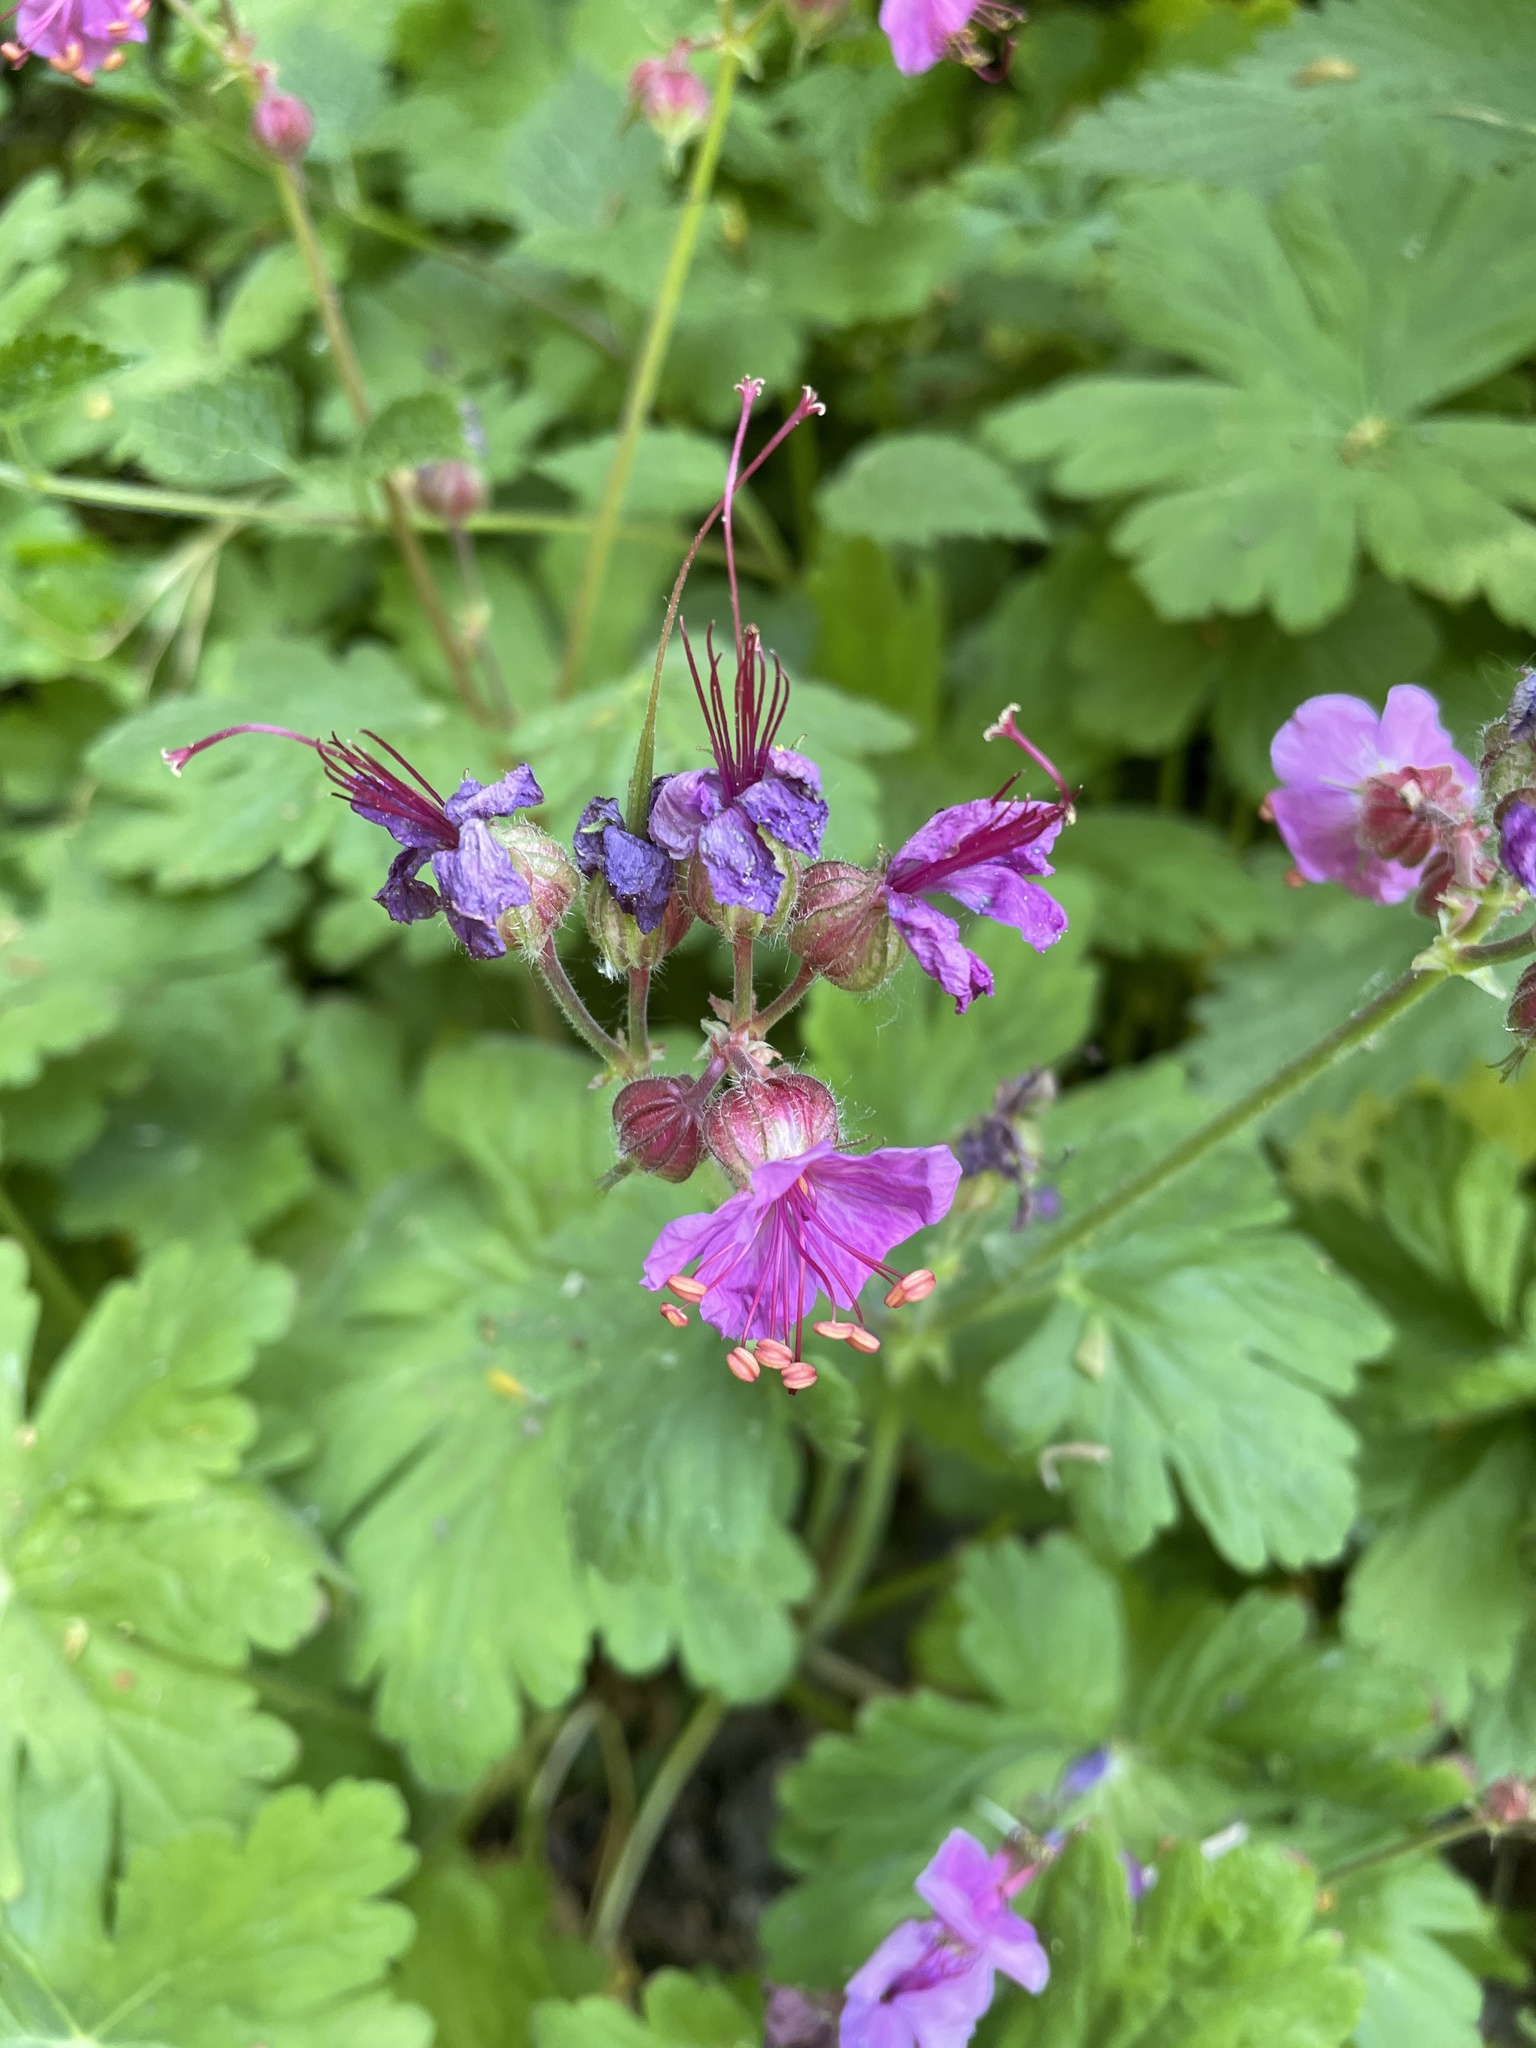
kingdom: Plantae
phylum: Tracheophyta
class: Magnoliopsida
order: Geraniales
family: Geraniaceae
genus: Geranium
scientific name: Geranium macrorrhizum
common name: Rock crane's-bill
